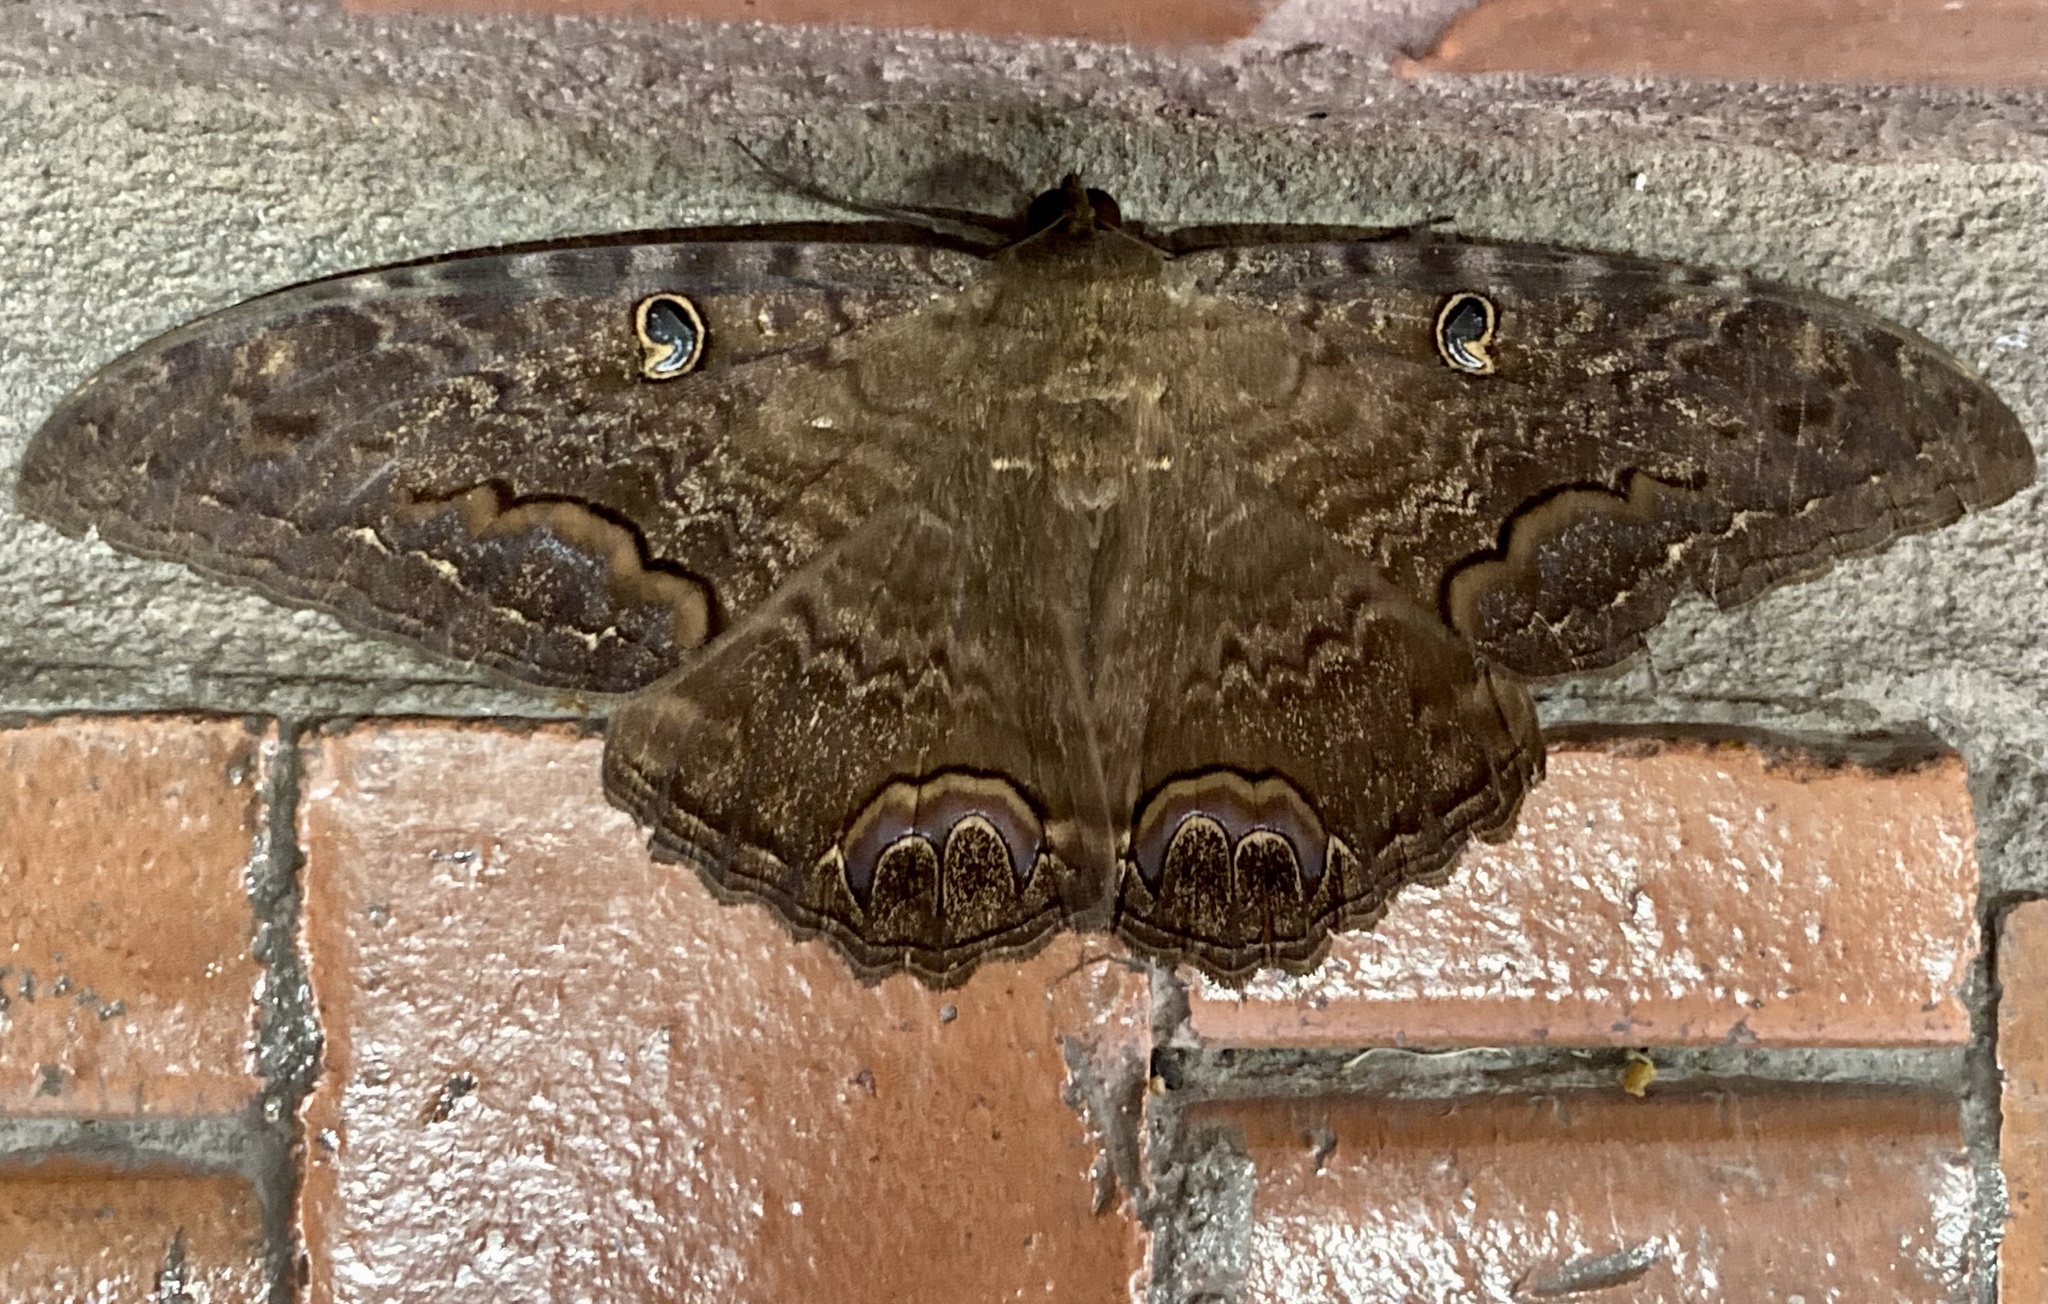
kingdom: Animalia
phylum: Arthropoda
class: Insecta
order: Lepidoptera
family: Erebidae
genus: Ascalapha
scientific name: Ascalapha odorata
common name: Black witch
